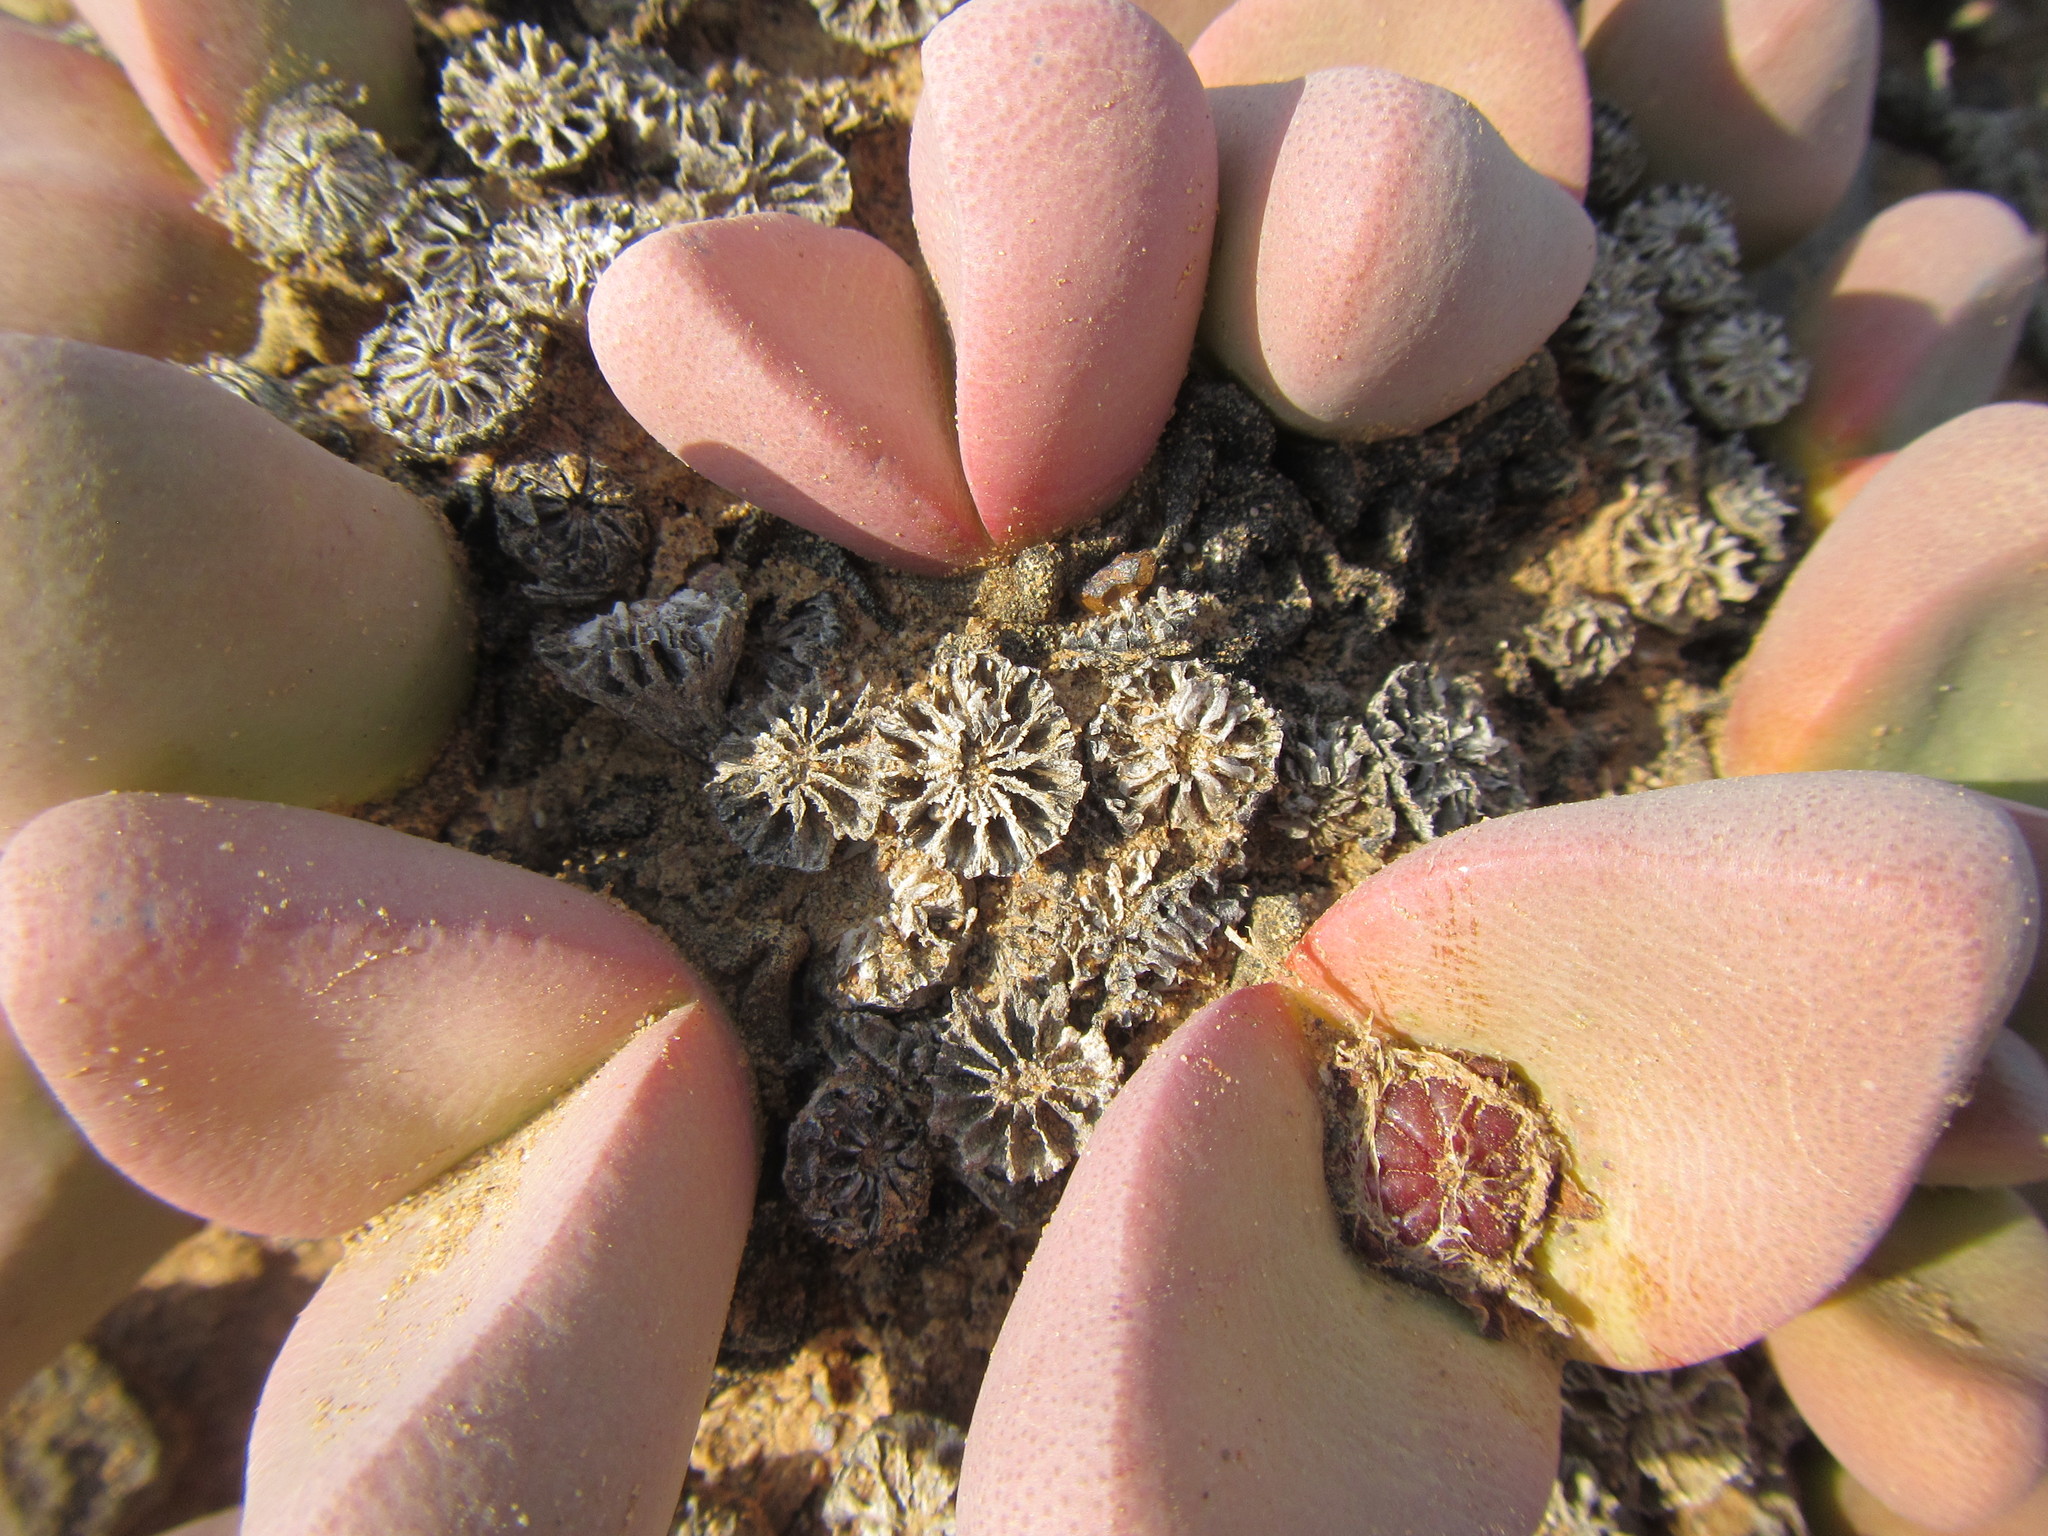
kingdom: Plantae
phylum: Tracheophyta
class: Magnoliopsida
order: Caryophyllales
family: Aizoaceae
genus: Tanquana
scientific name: Tanquana prismatica
